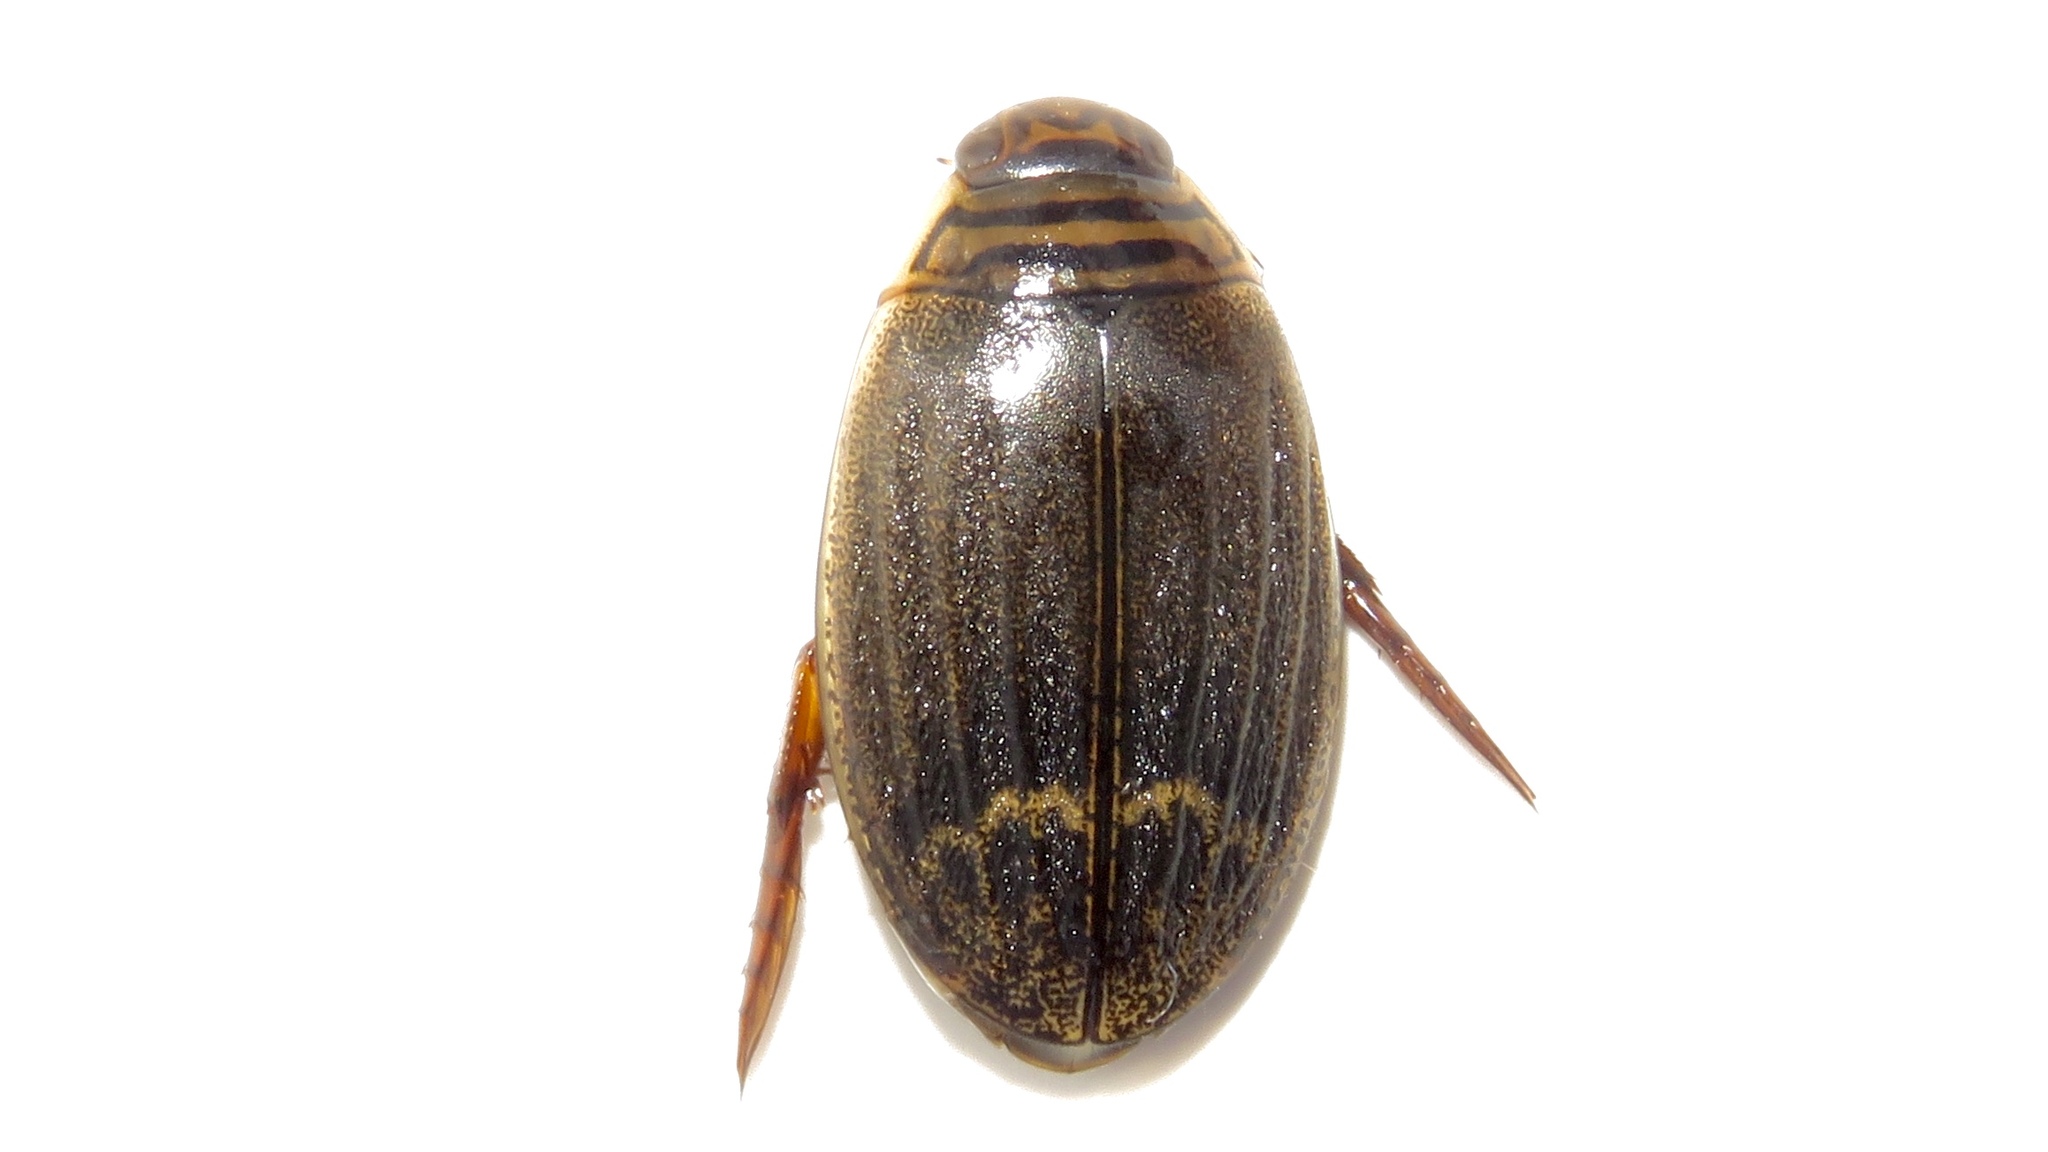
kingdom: Animalia
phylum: Arthropoda
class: Insecta
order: Coleoptera
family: Dytiscidae
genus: Acilius
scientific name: Acilius semisulcatus
